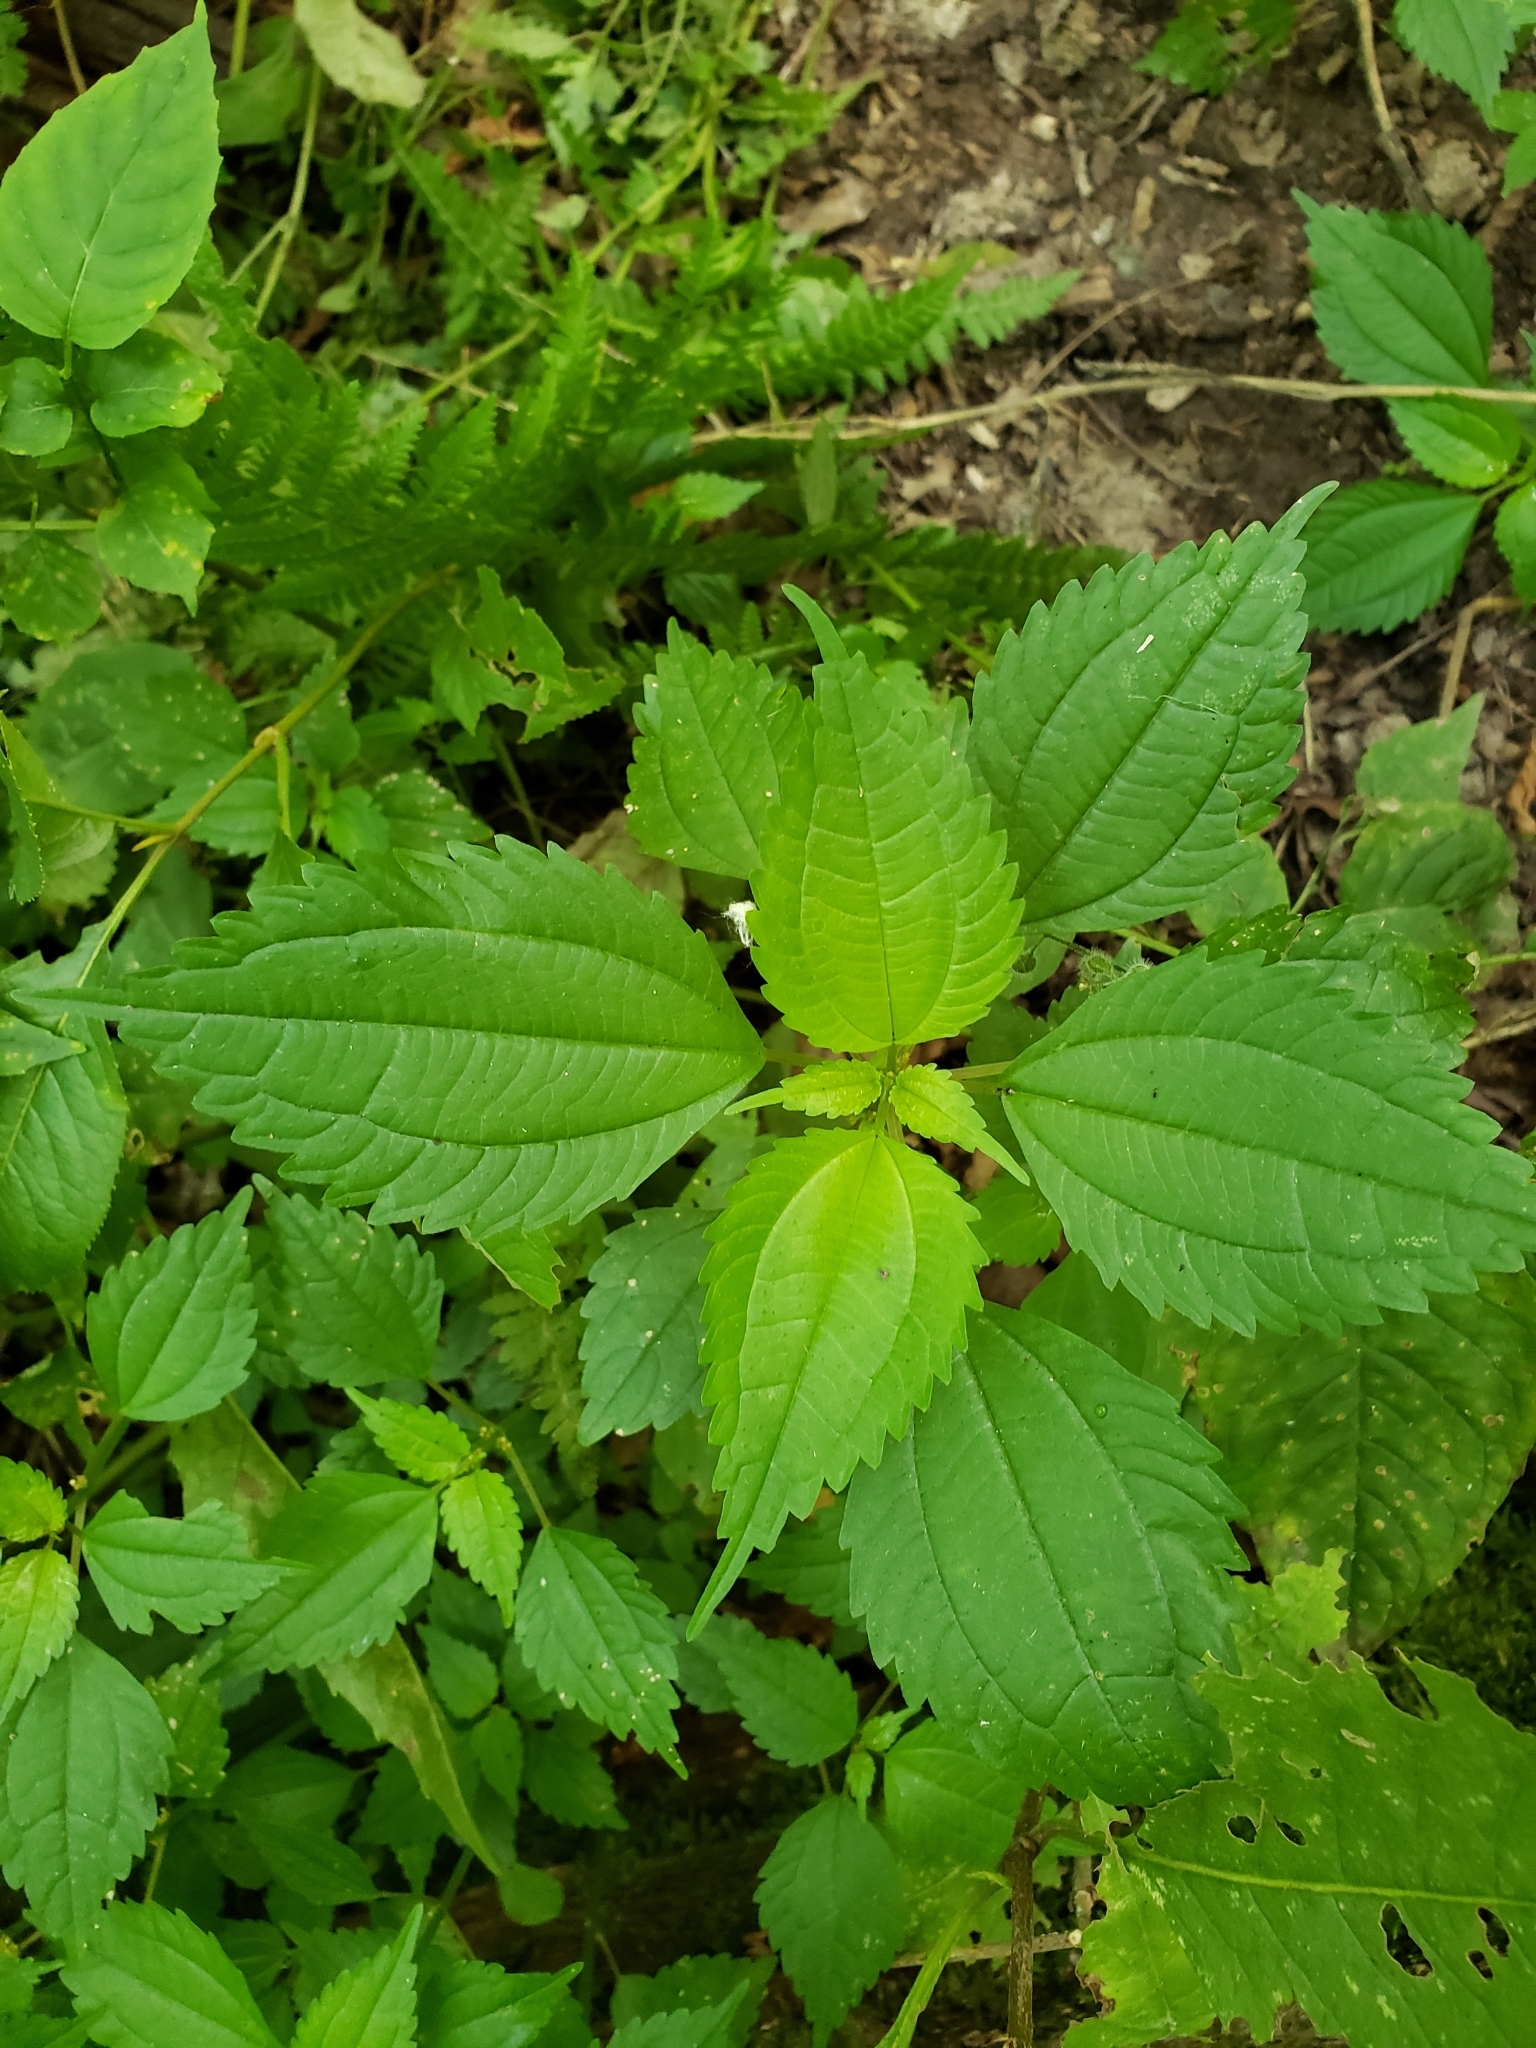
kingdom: Plantae
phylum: Tracheophyta
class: Magnoliopsida
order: Rosales
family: Urticaceae
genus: Pilea
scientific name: Pilea pumila
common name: Clearweed
